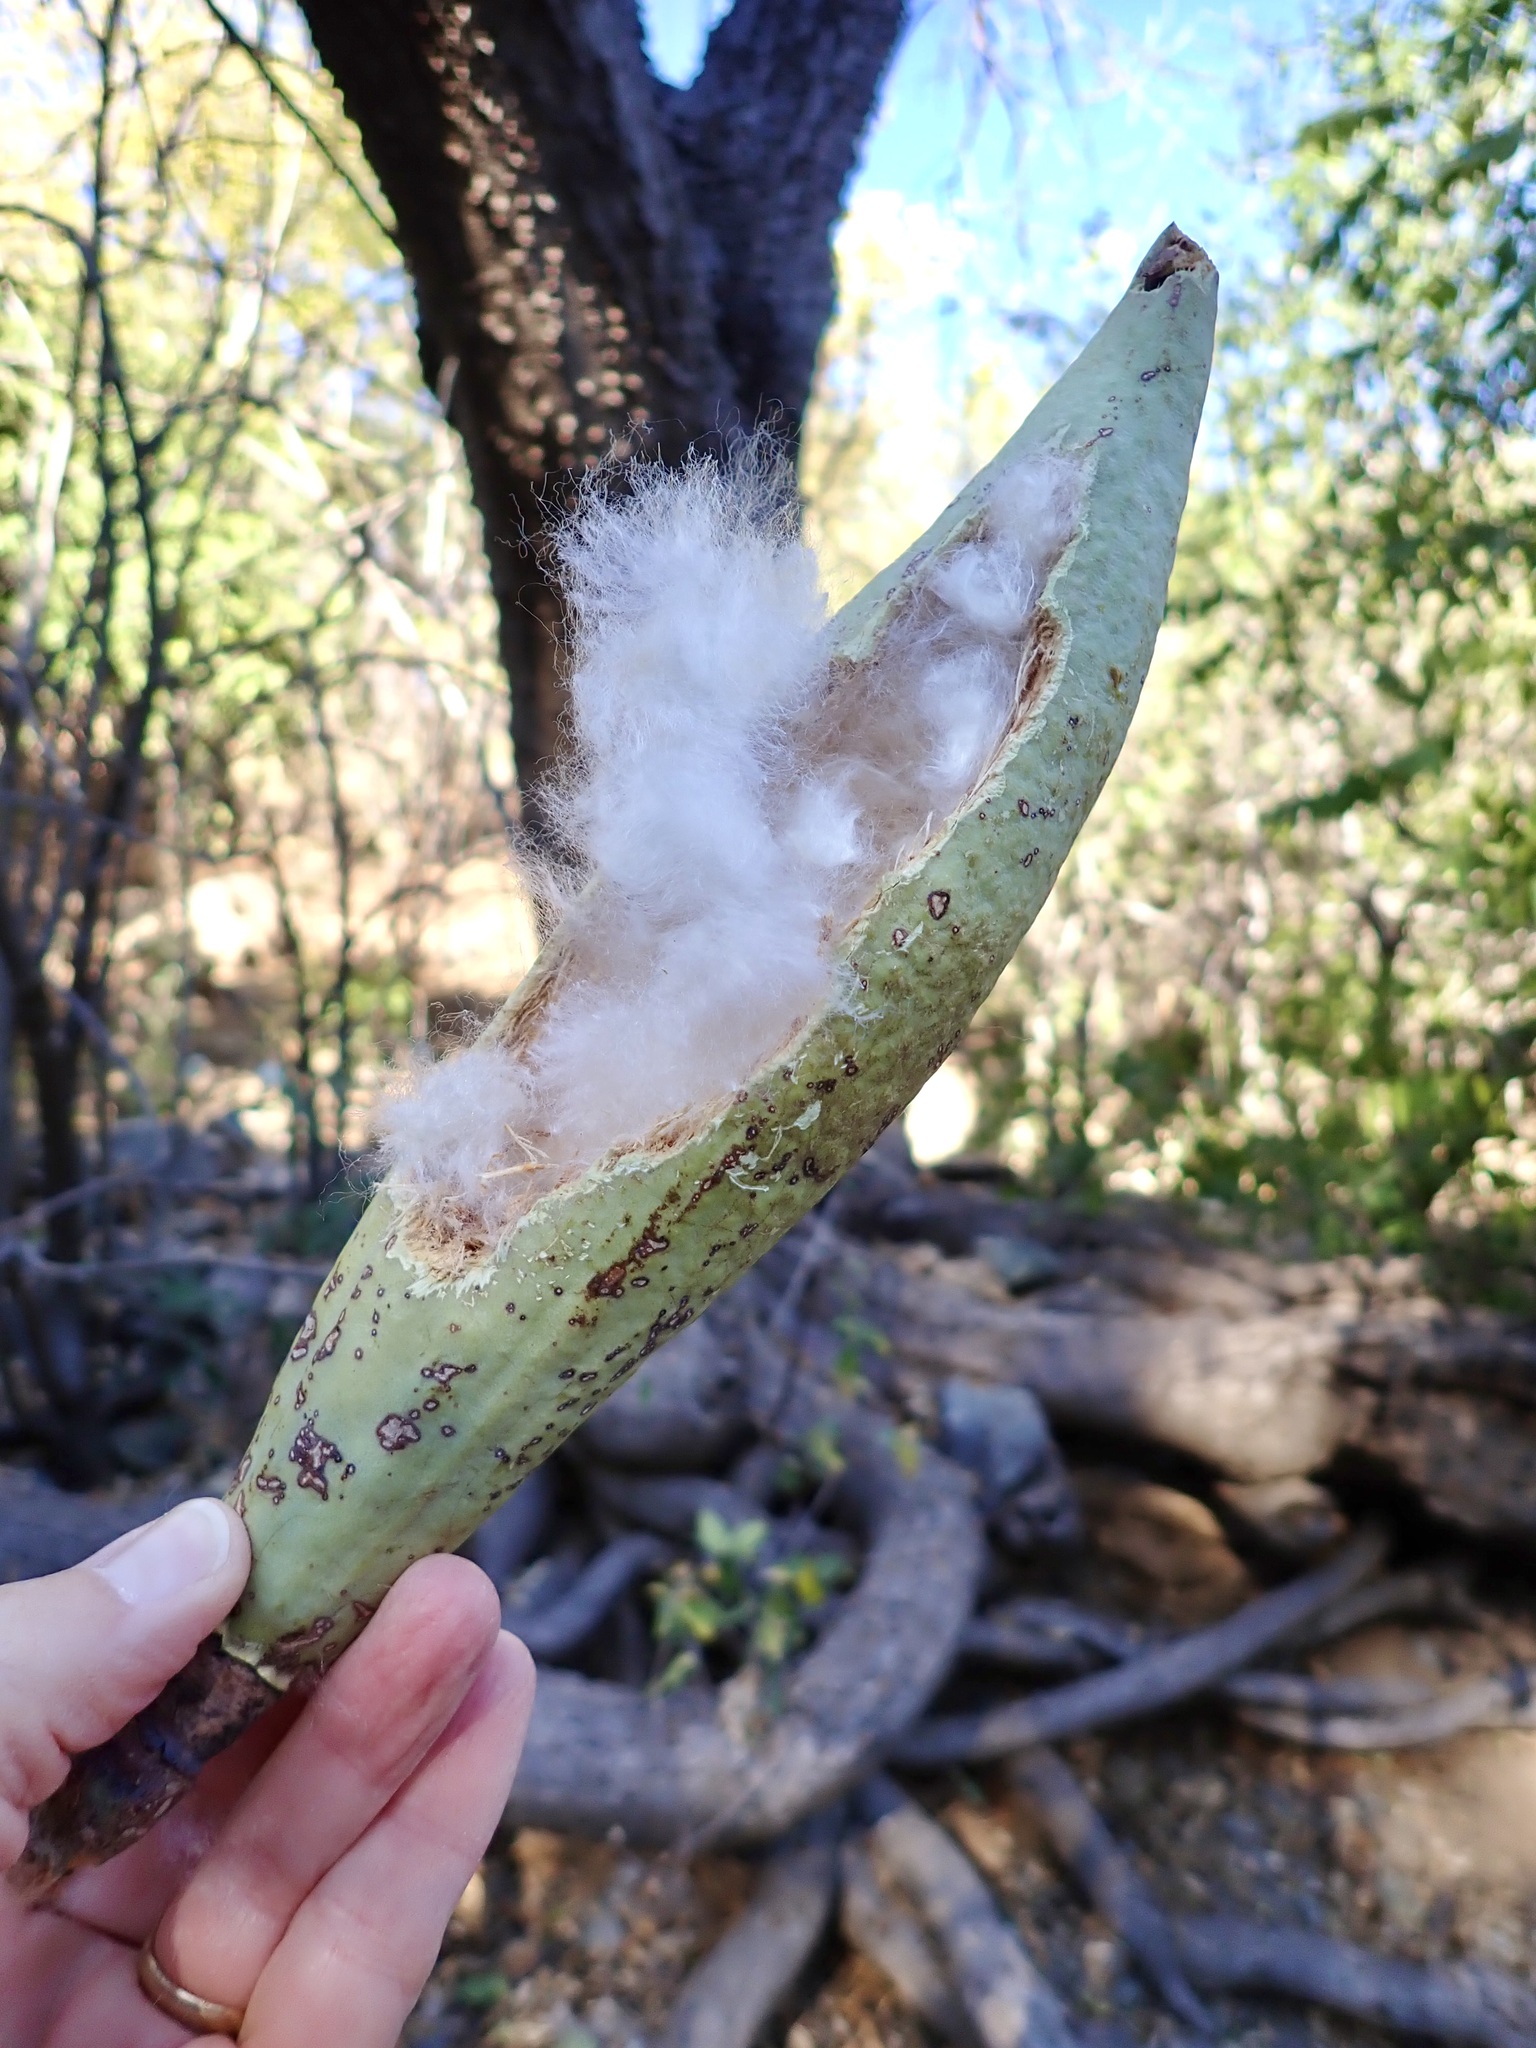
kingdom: Plantae
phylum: Tracheophyta
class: Magnoliopsida
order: Malvales
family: Malvaceae
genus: Ceiba
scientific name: Ceiba aesculifolia
